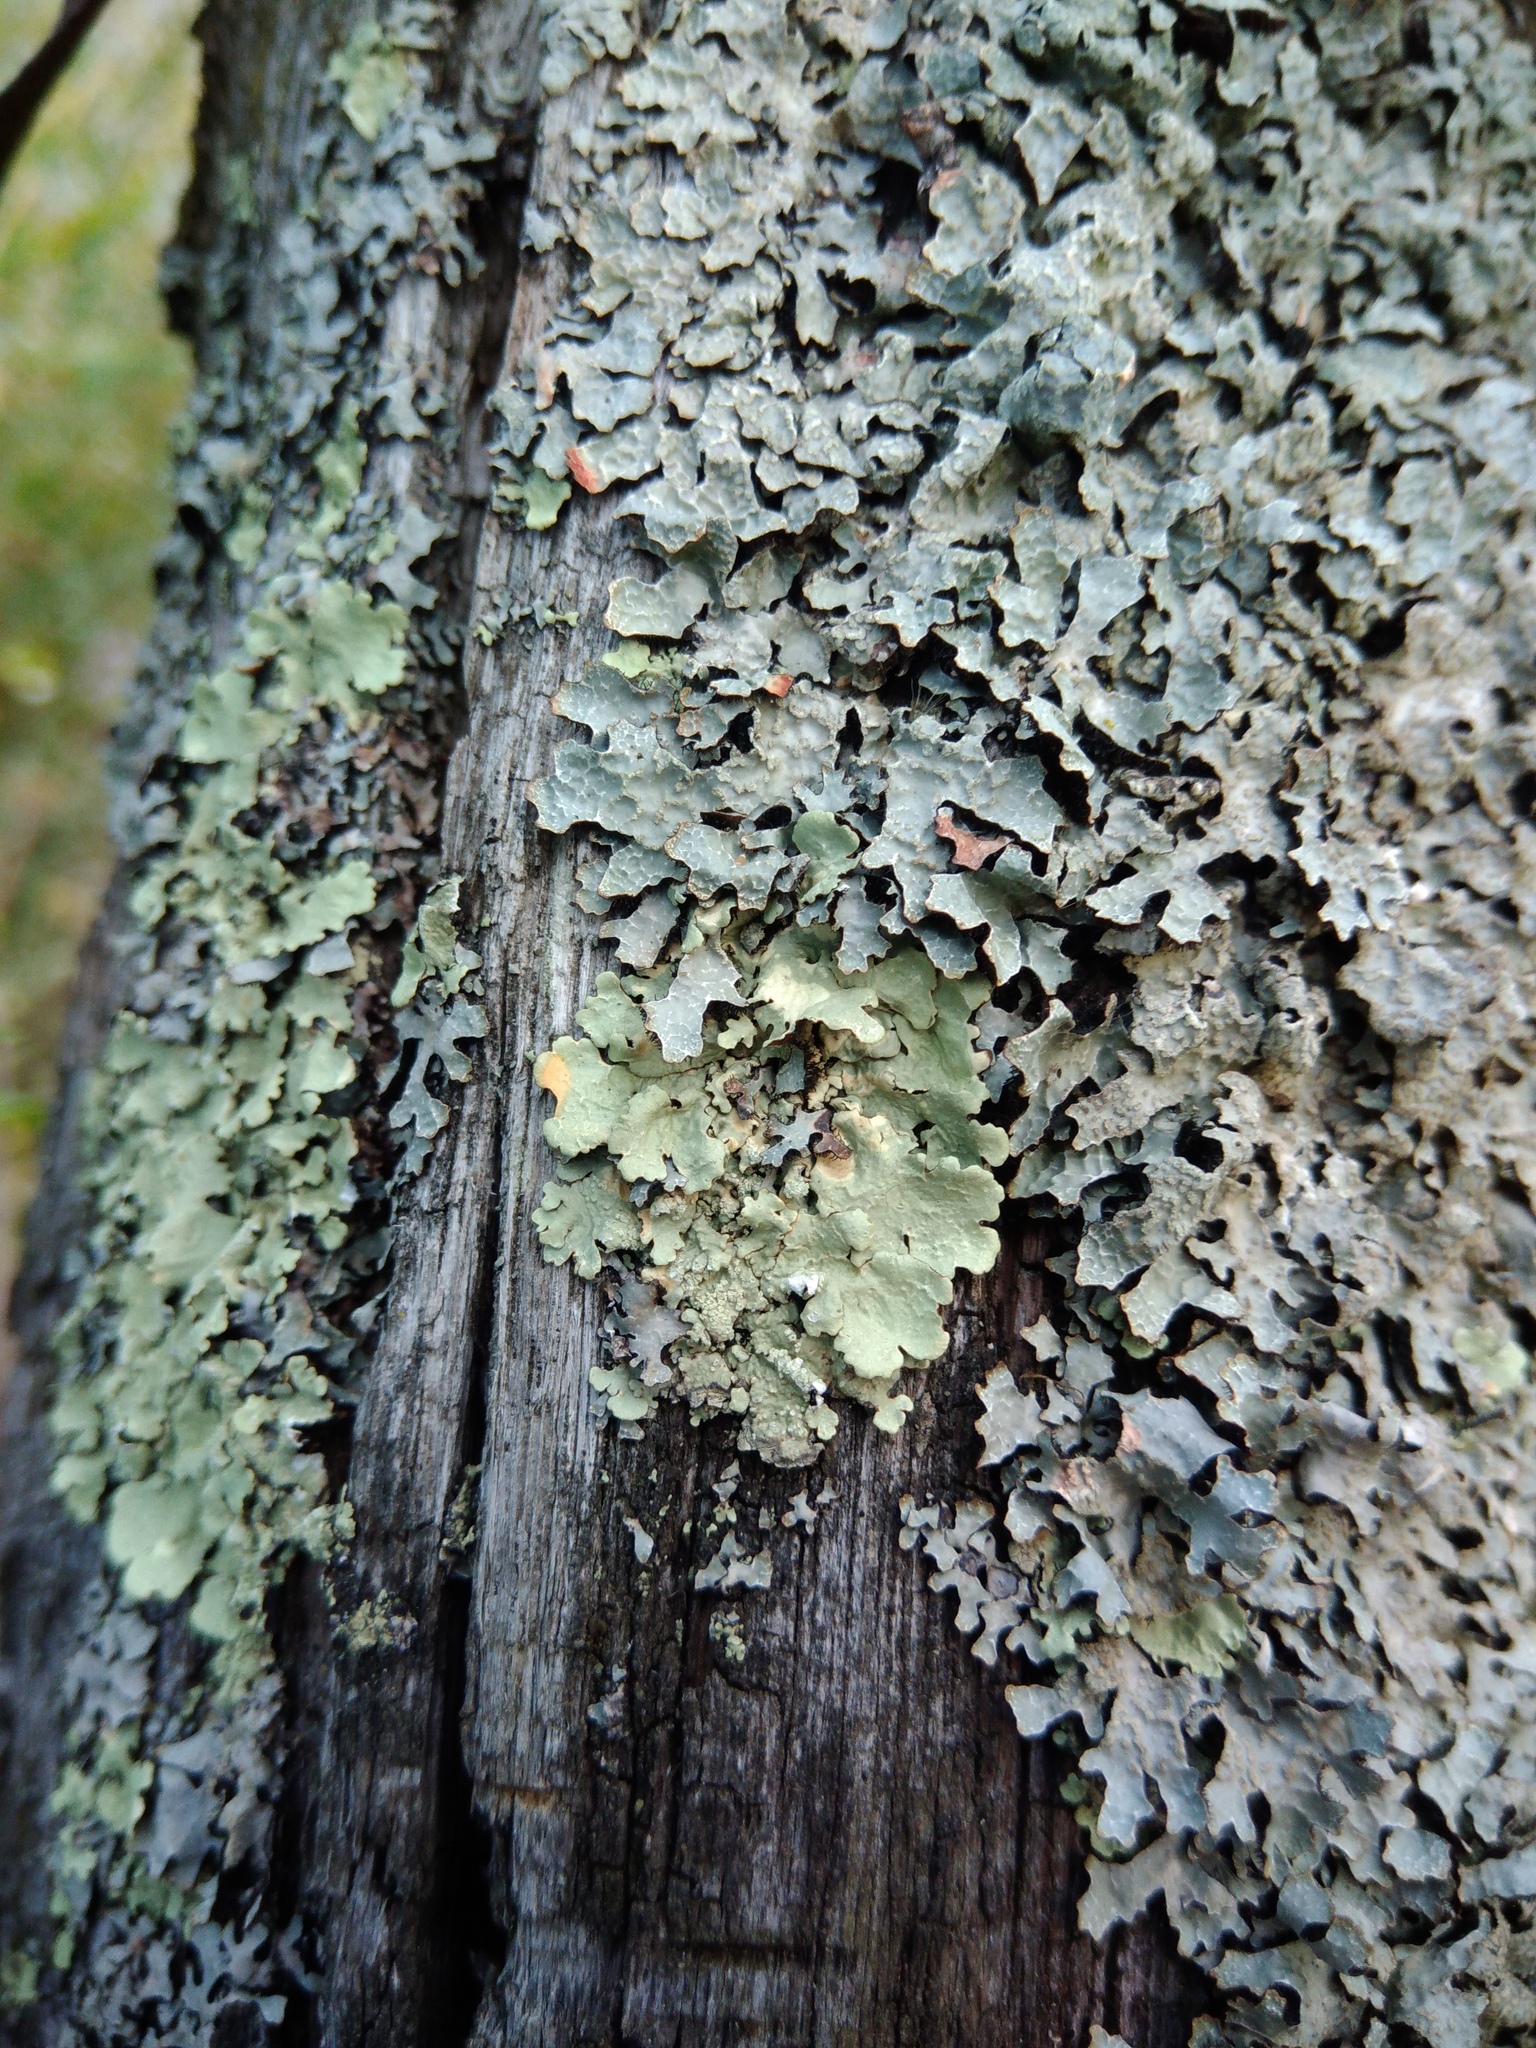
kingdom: Fungi
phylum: Ascomycota
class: Lecanoromycetes
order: Lecanorales
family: Parmeliaceae
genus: Flavoparmelia
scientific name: Flavoparmelia caperata
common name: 40-mile per hour lichen
